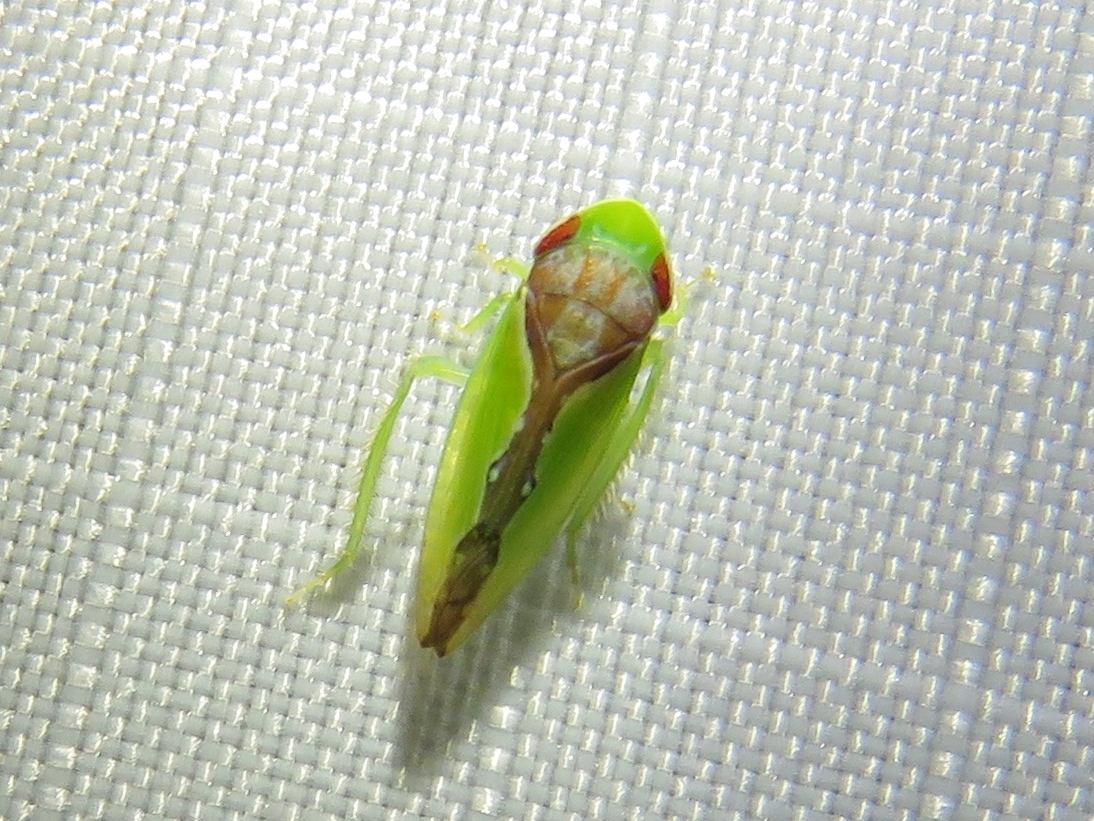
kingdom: Animalia
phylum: Arthropoda
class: Insecta
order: Hemiptera
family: Cicadellidae
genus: Omansobara ing
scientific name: Omansobara ing Omansobara palliolata
